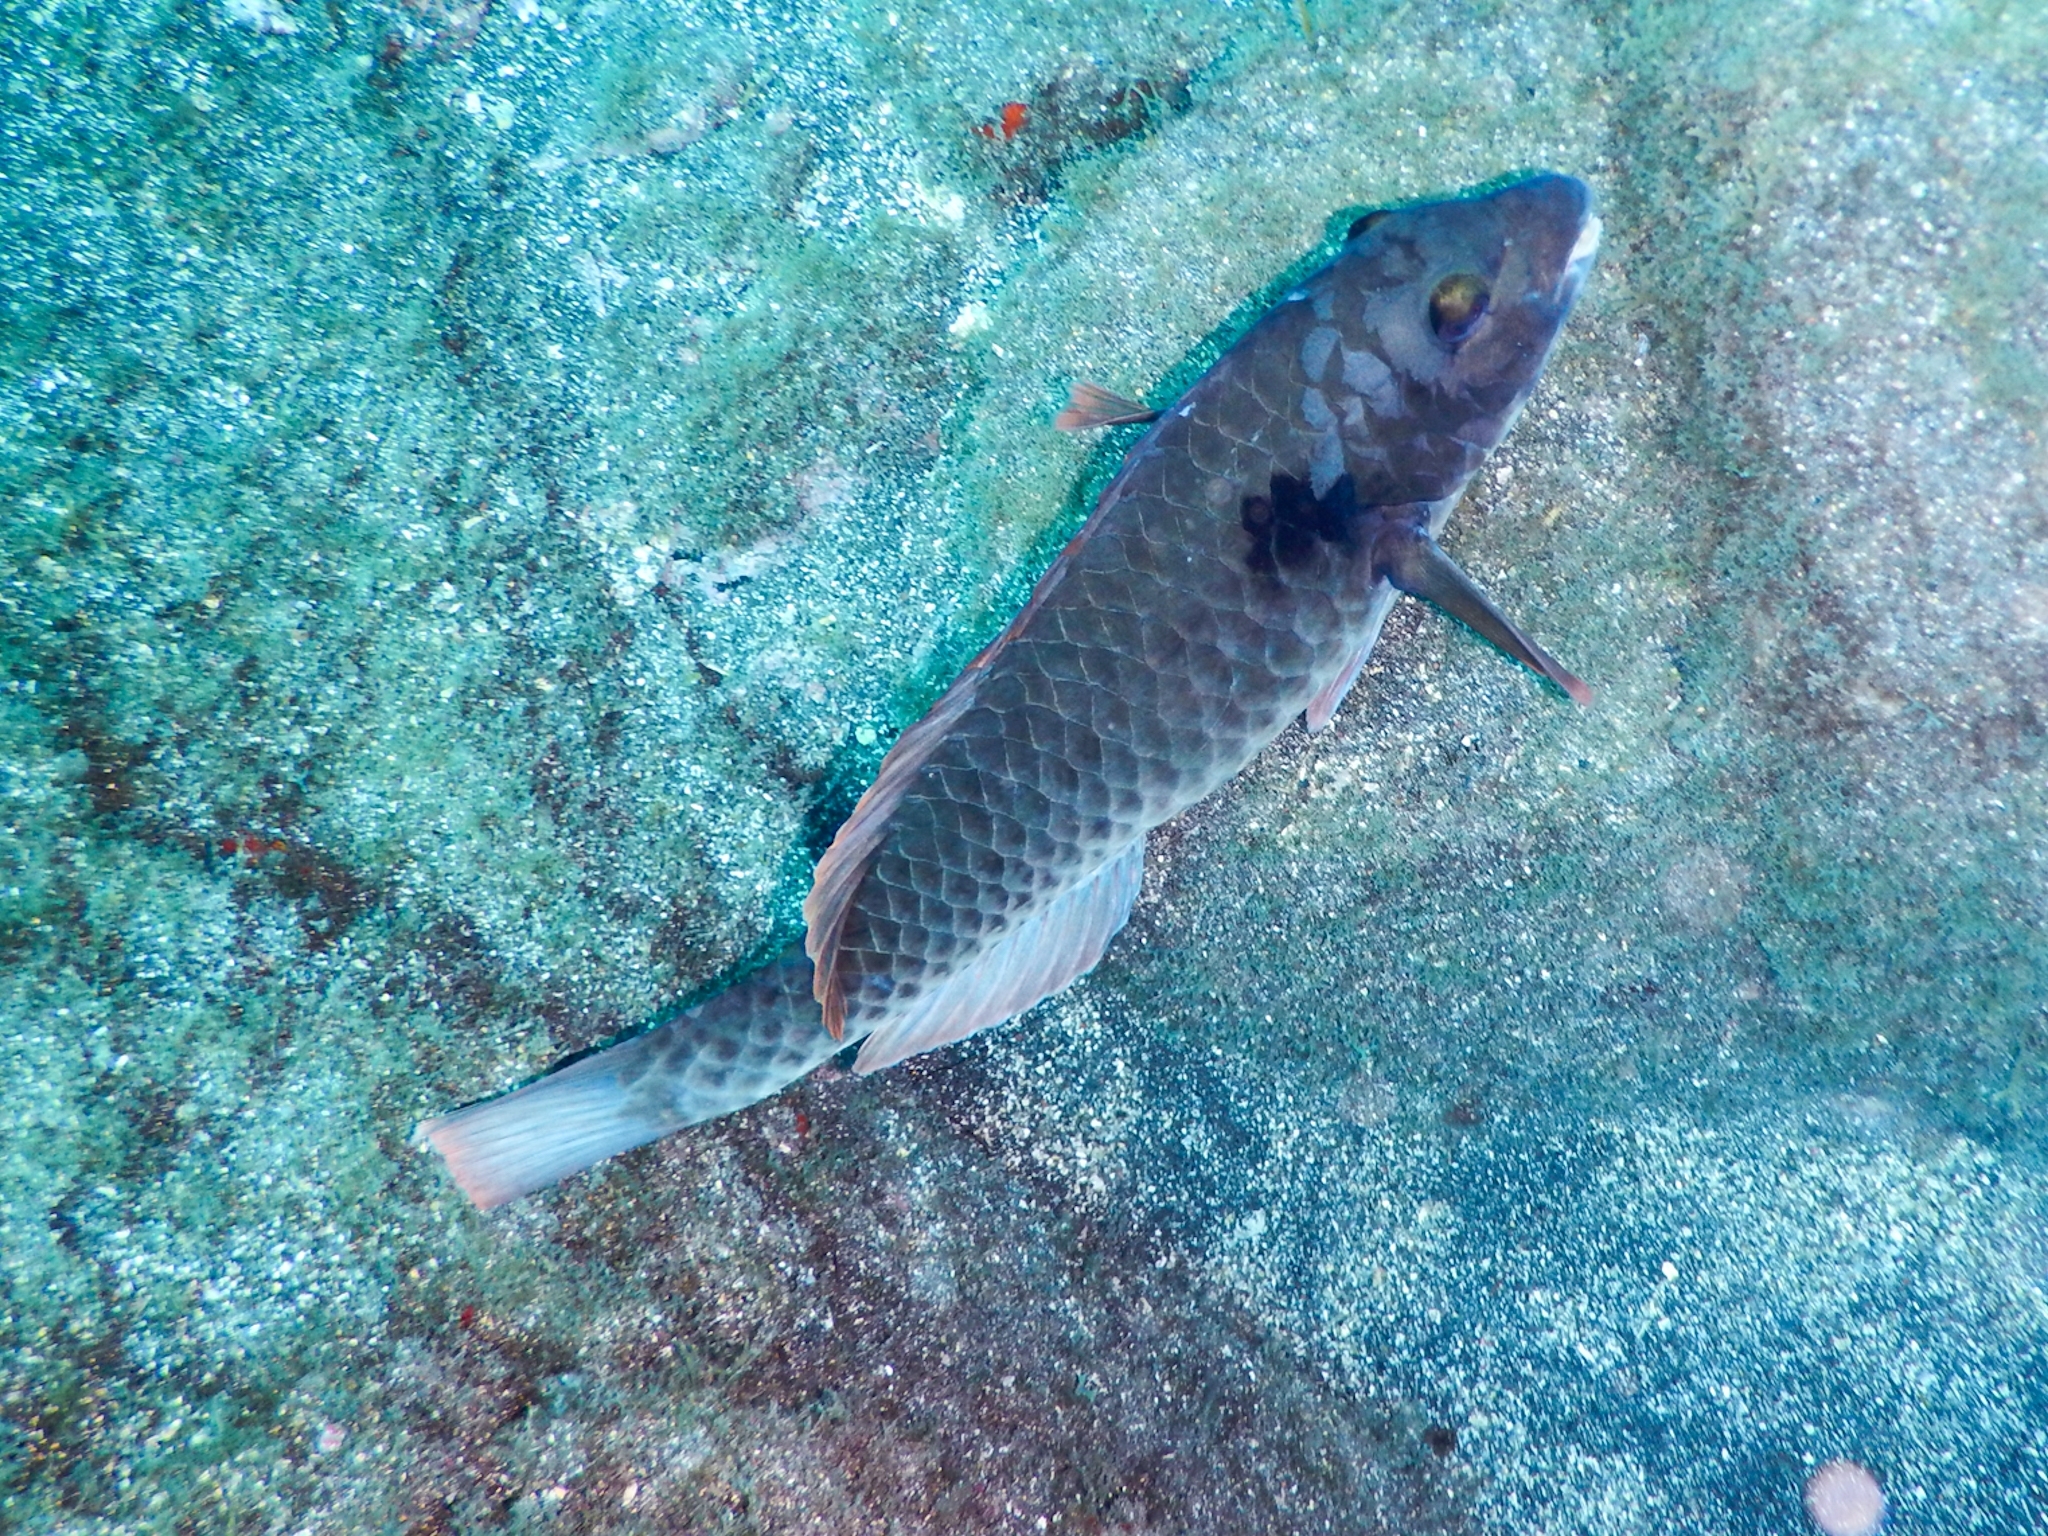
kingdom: Animalia
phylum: Chordata
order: Perciformes
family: Scaridae
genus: Sparisoma
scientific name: Sparisoma cretense
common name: Parrotfish
